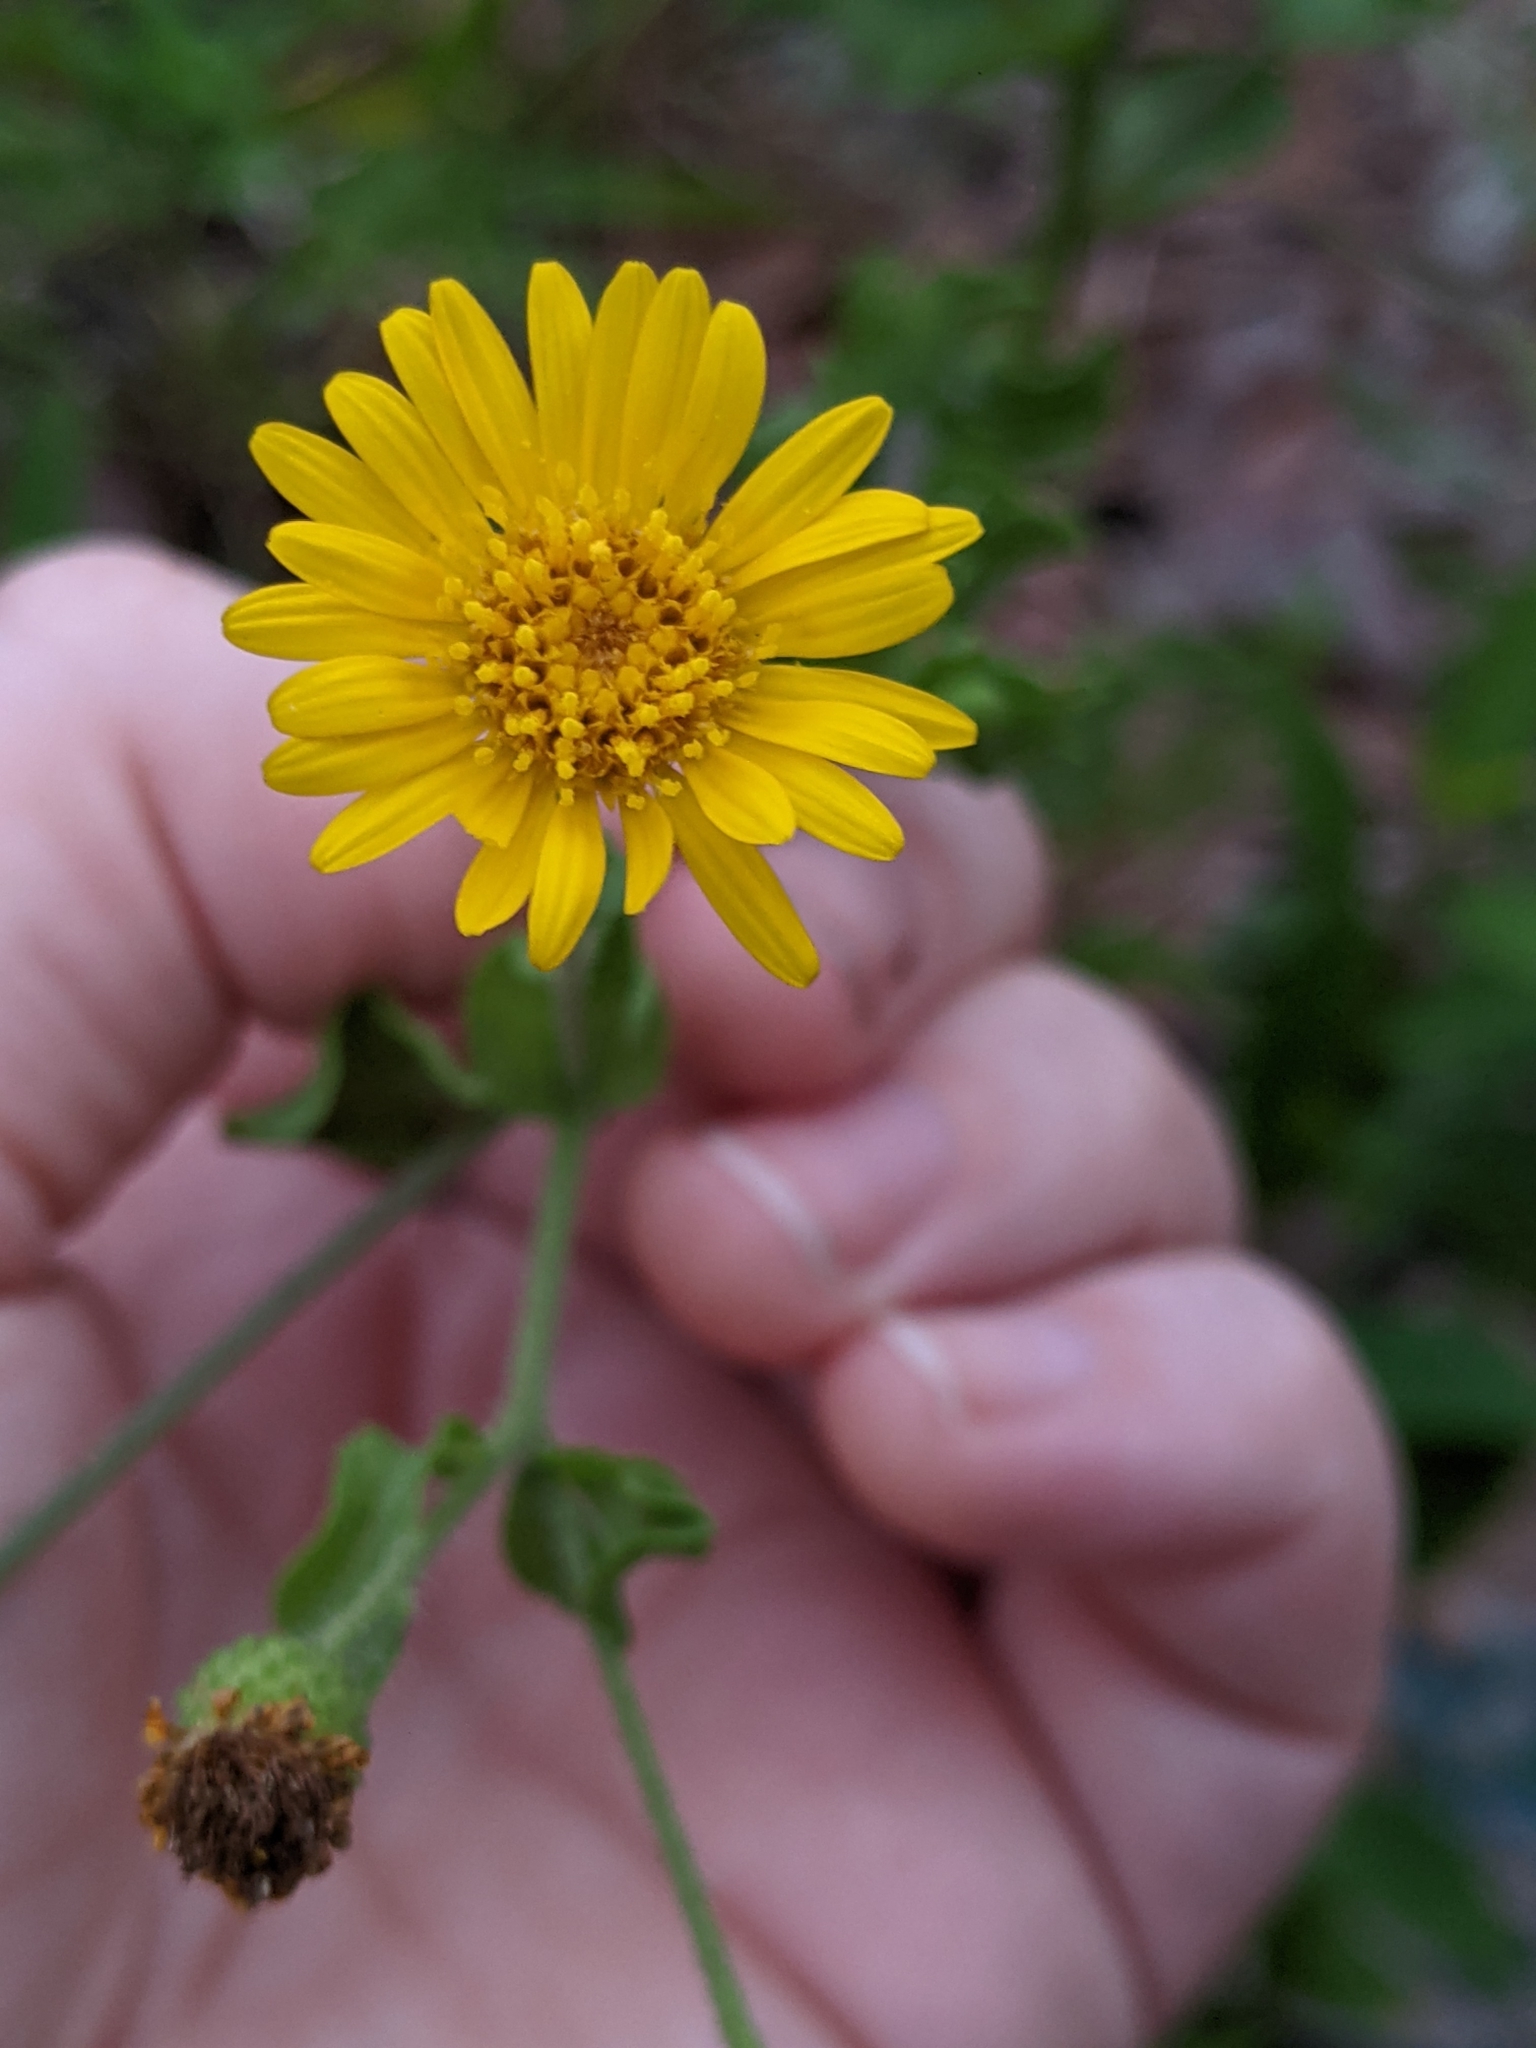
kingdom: Plantae
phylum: Tracheophyta
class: Magnoliopsida
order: Asterales
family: Asteraceae
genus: Heterotheca
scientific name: Heterotheca subaxillaris
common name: Camphorweed
